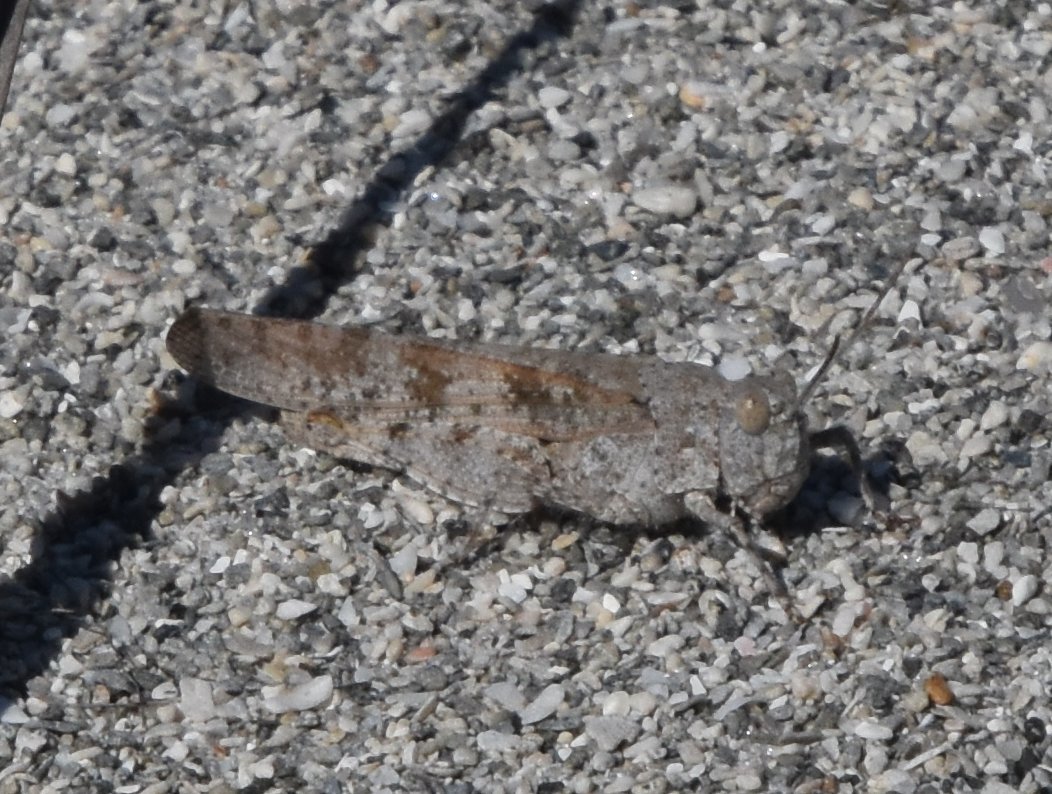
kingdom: Animalia
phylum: Arthropoda
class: Insecta
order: Orthoptera
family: Acrididae
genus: Trimerotropis
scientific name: Trimerotropis maritima
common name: Seaside locust
